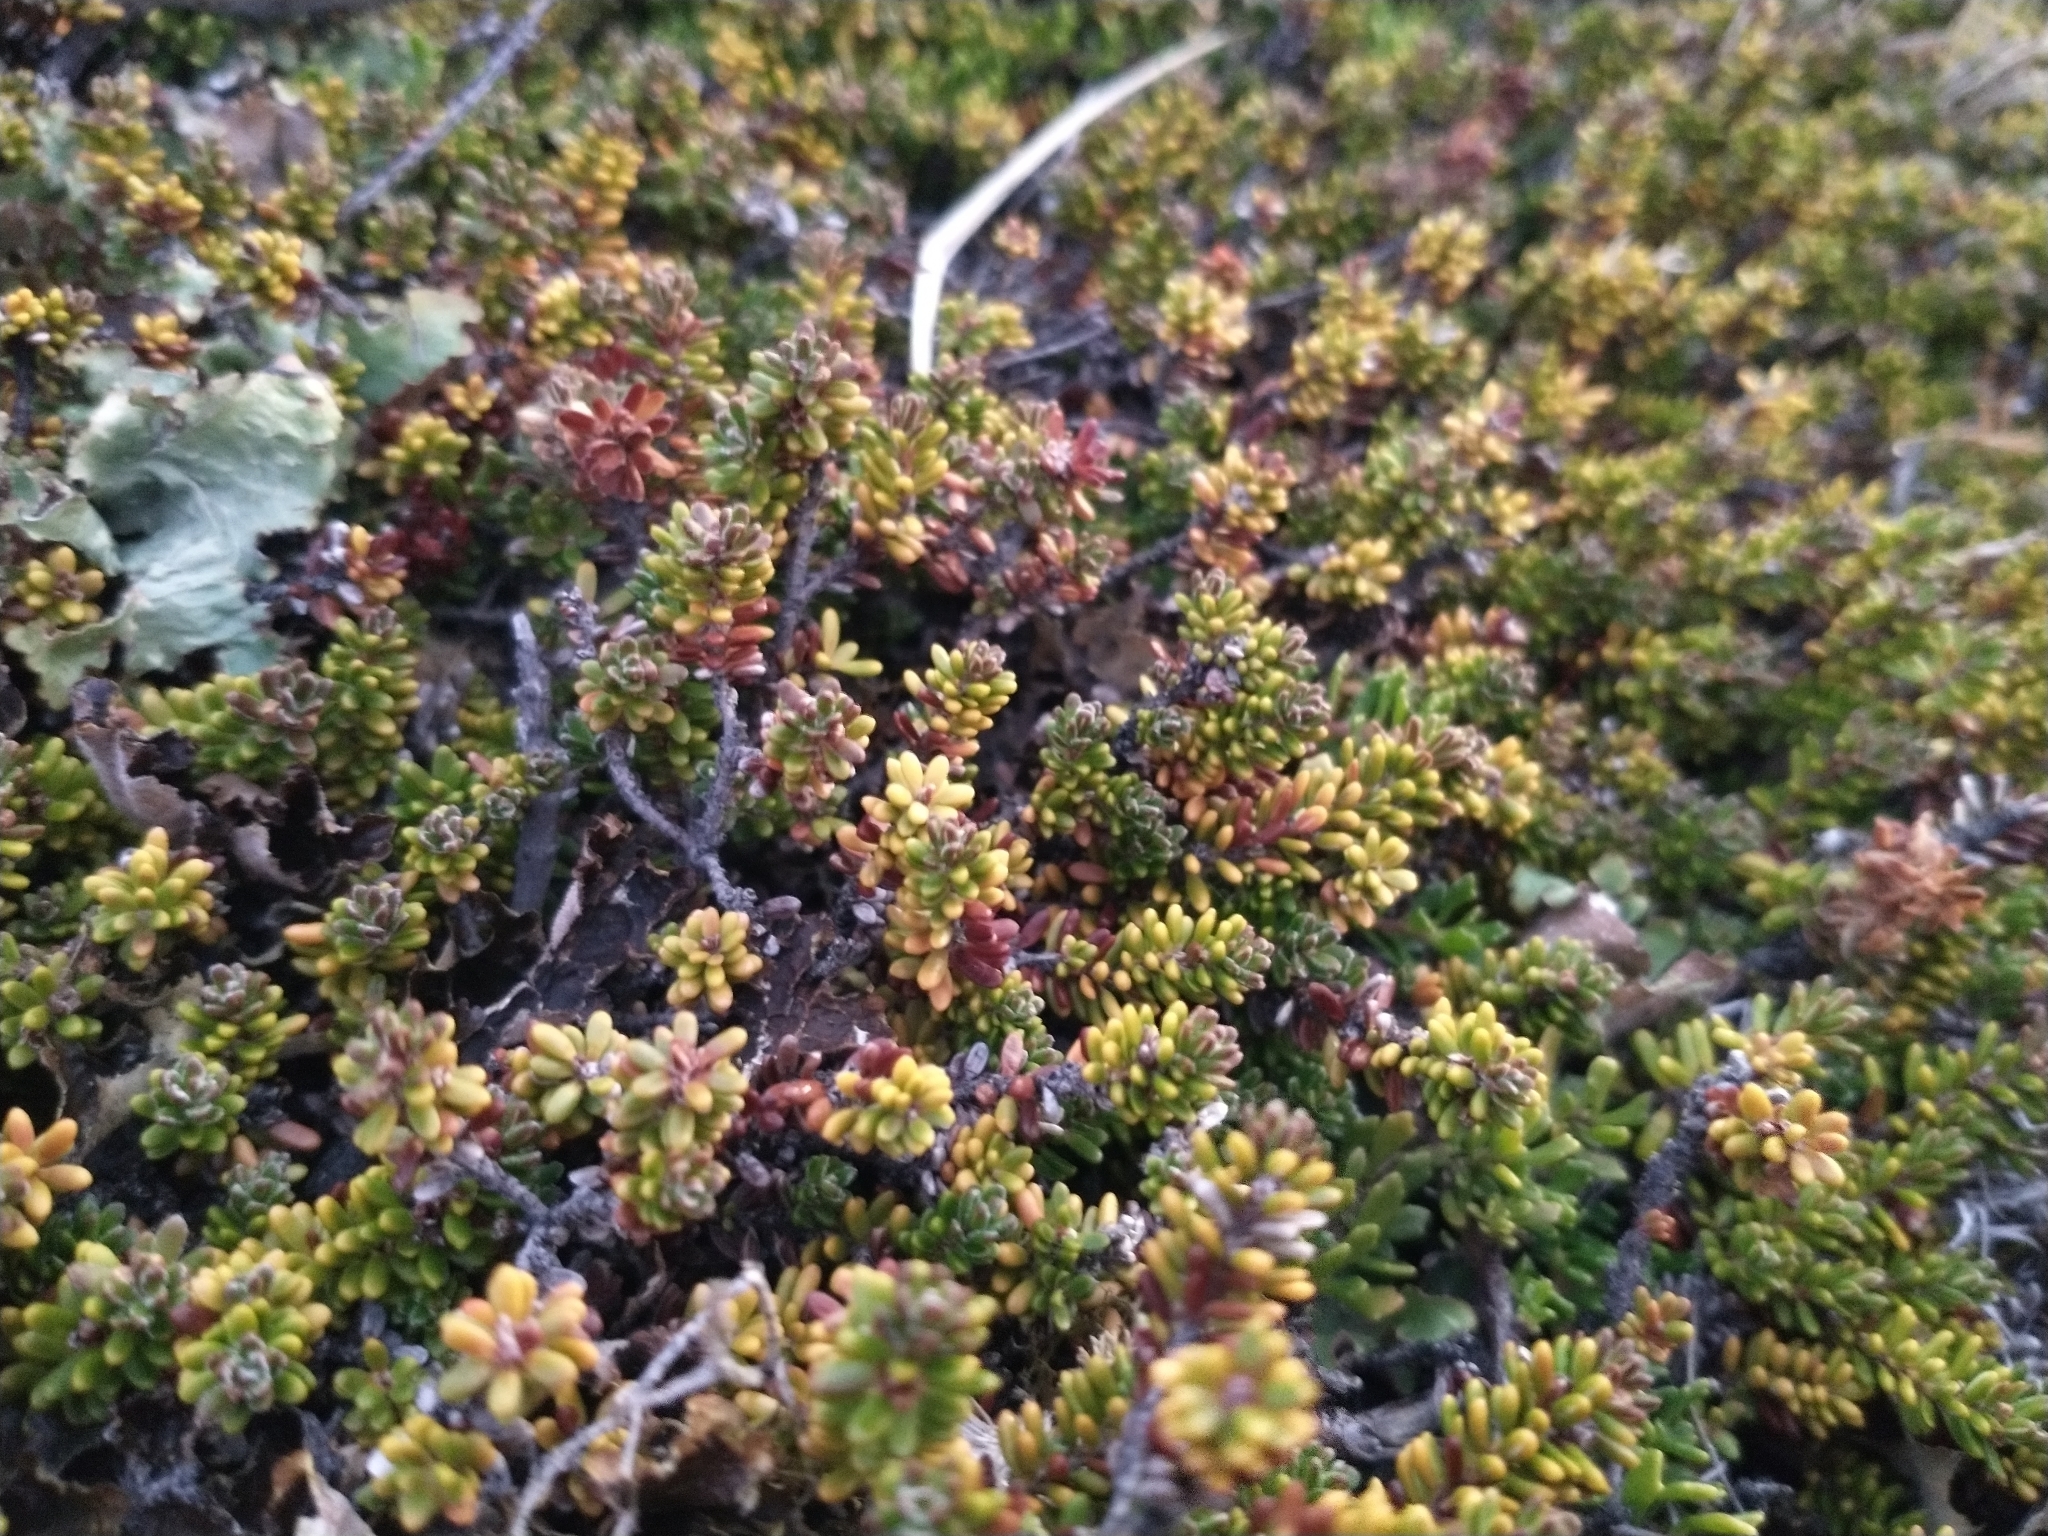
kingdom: Plantae
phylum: Tracheophyta
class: Magnoliopsida
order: Ericales
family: Ericaceae
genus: Empetrum
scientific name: Empetrum rubrum
